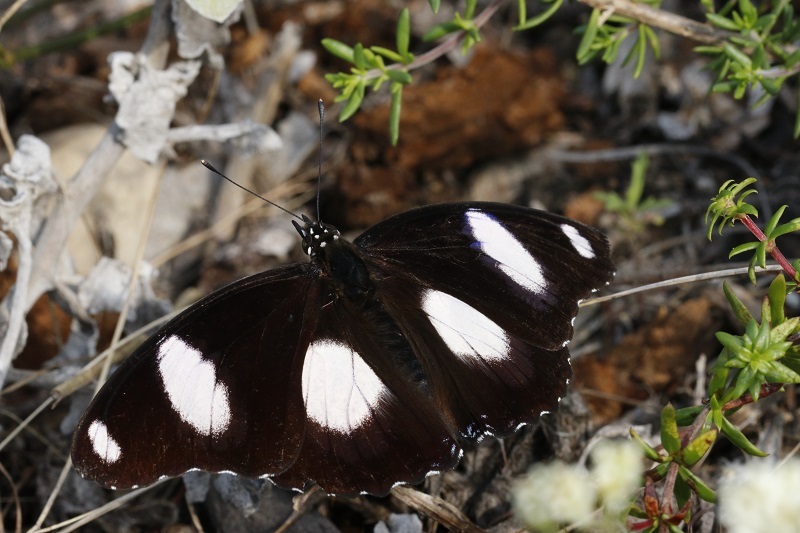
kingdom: Animalia
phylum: Arthropoda
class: Insecta
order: Lepidoptera
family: Nymphalidae
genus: Hypolimnas
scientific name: Hypolimnas misippus
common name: False plain tiger
